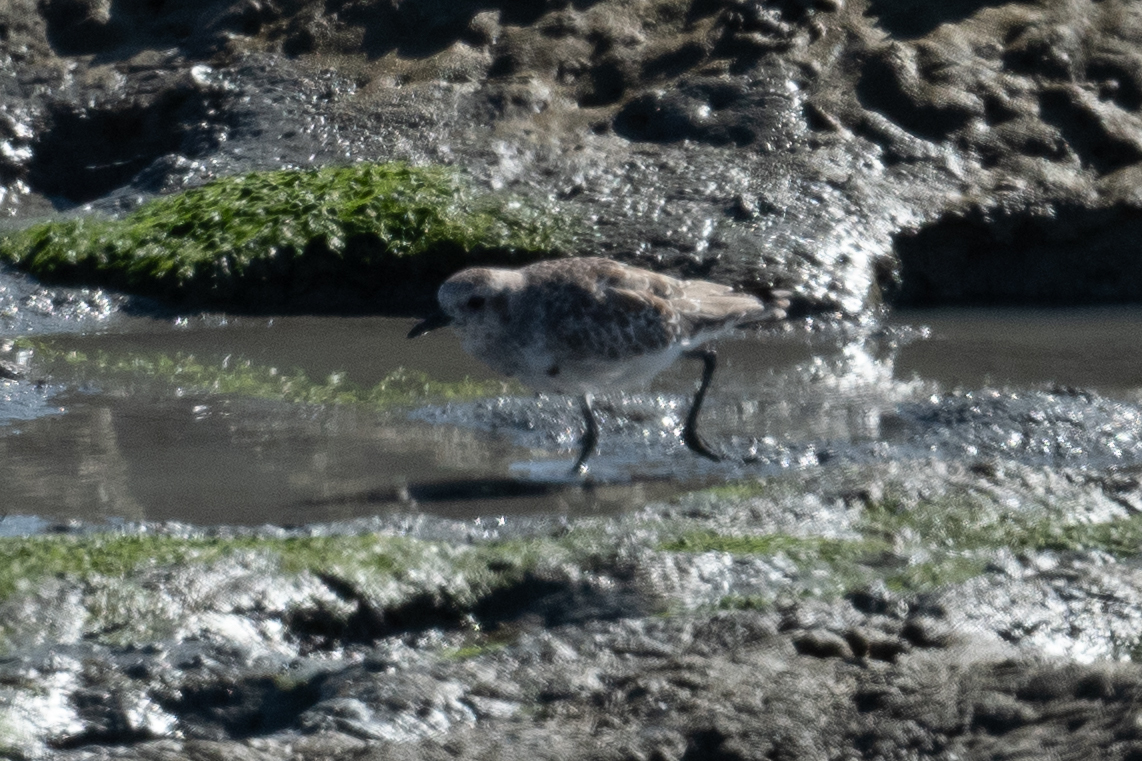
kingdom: Animalia
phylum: Chordata
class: Aves
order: Charadriiformes
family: Charadriidae
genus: Pluvialis
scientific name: Pluvialis squatarola
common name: Grey plover
